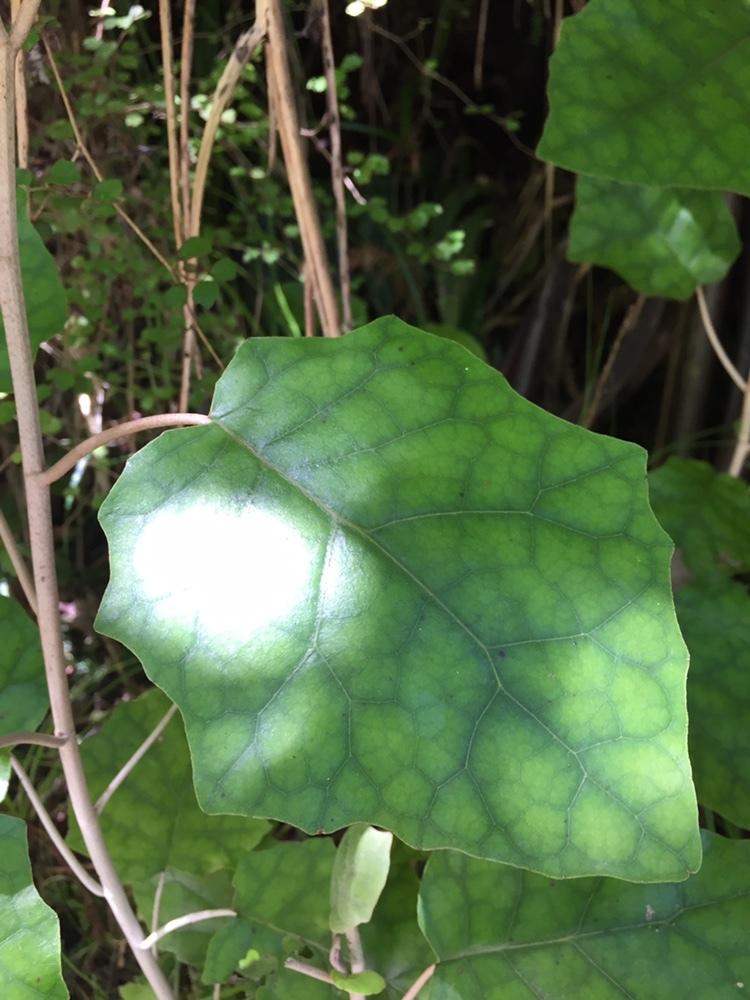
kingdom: Plantae
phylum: Tracheophyta
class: Magnoliopsida
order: Asterales
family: Asteraceae
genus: Brachyglottis
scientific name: Brachyglottis repanda
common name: Hedge ragwort
